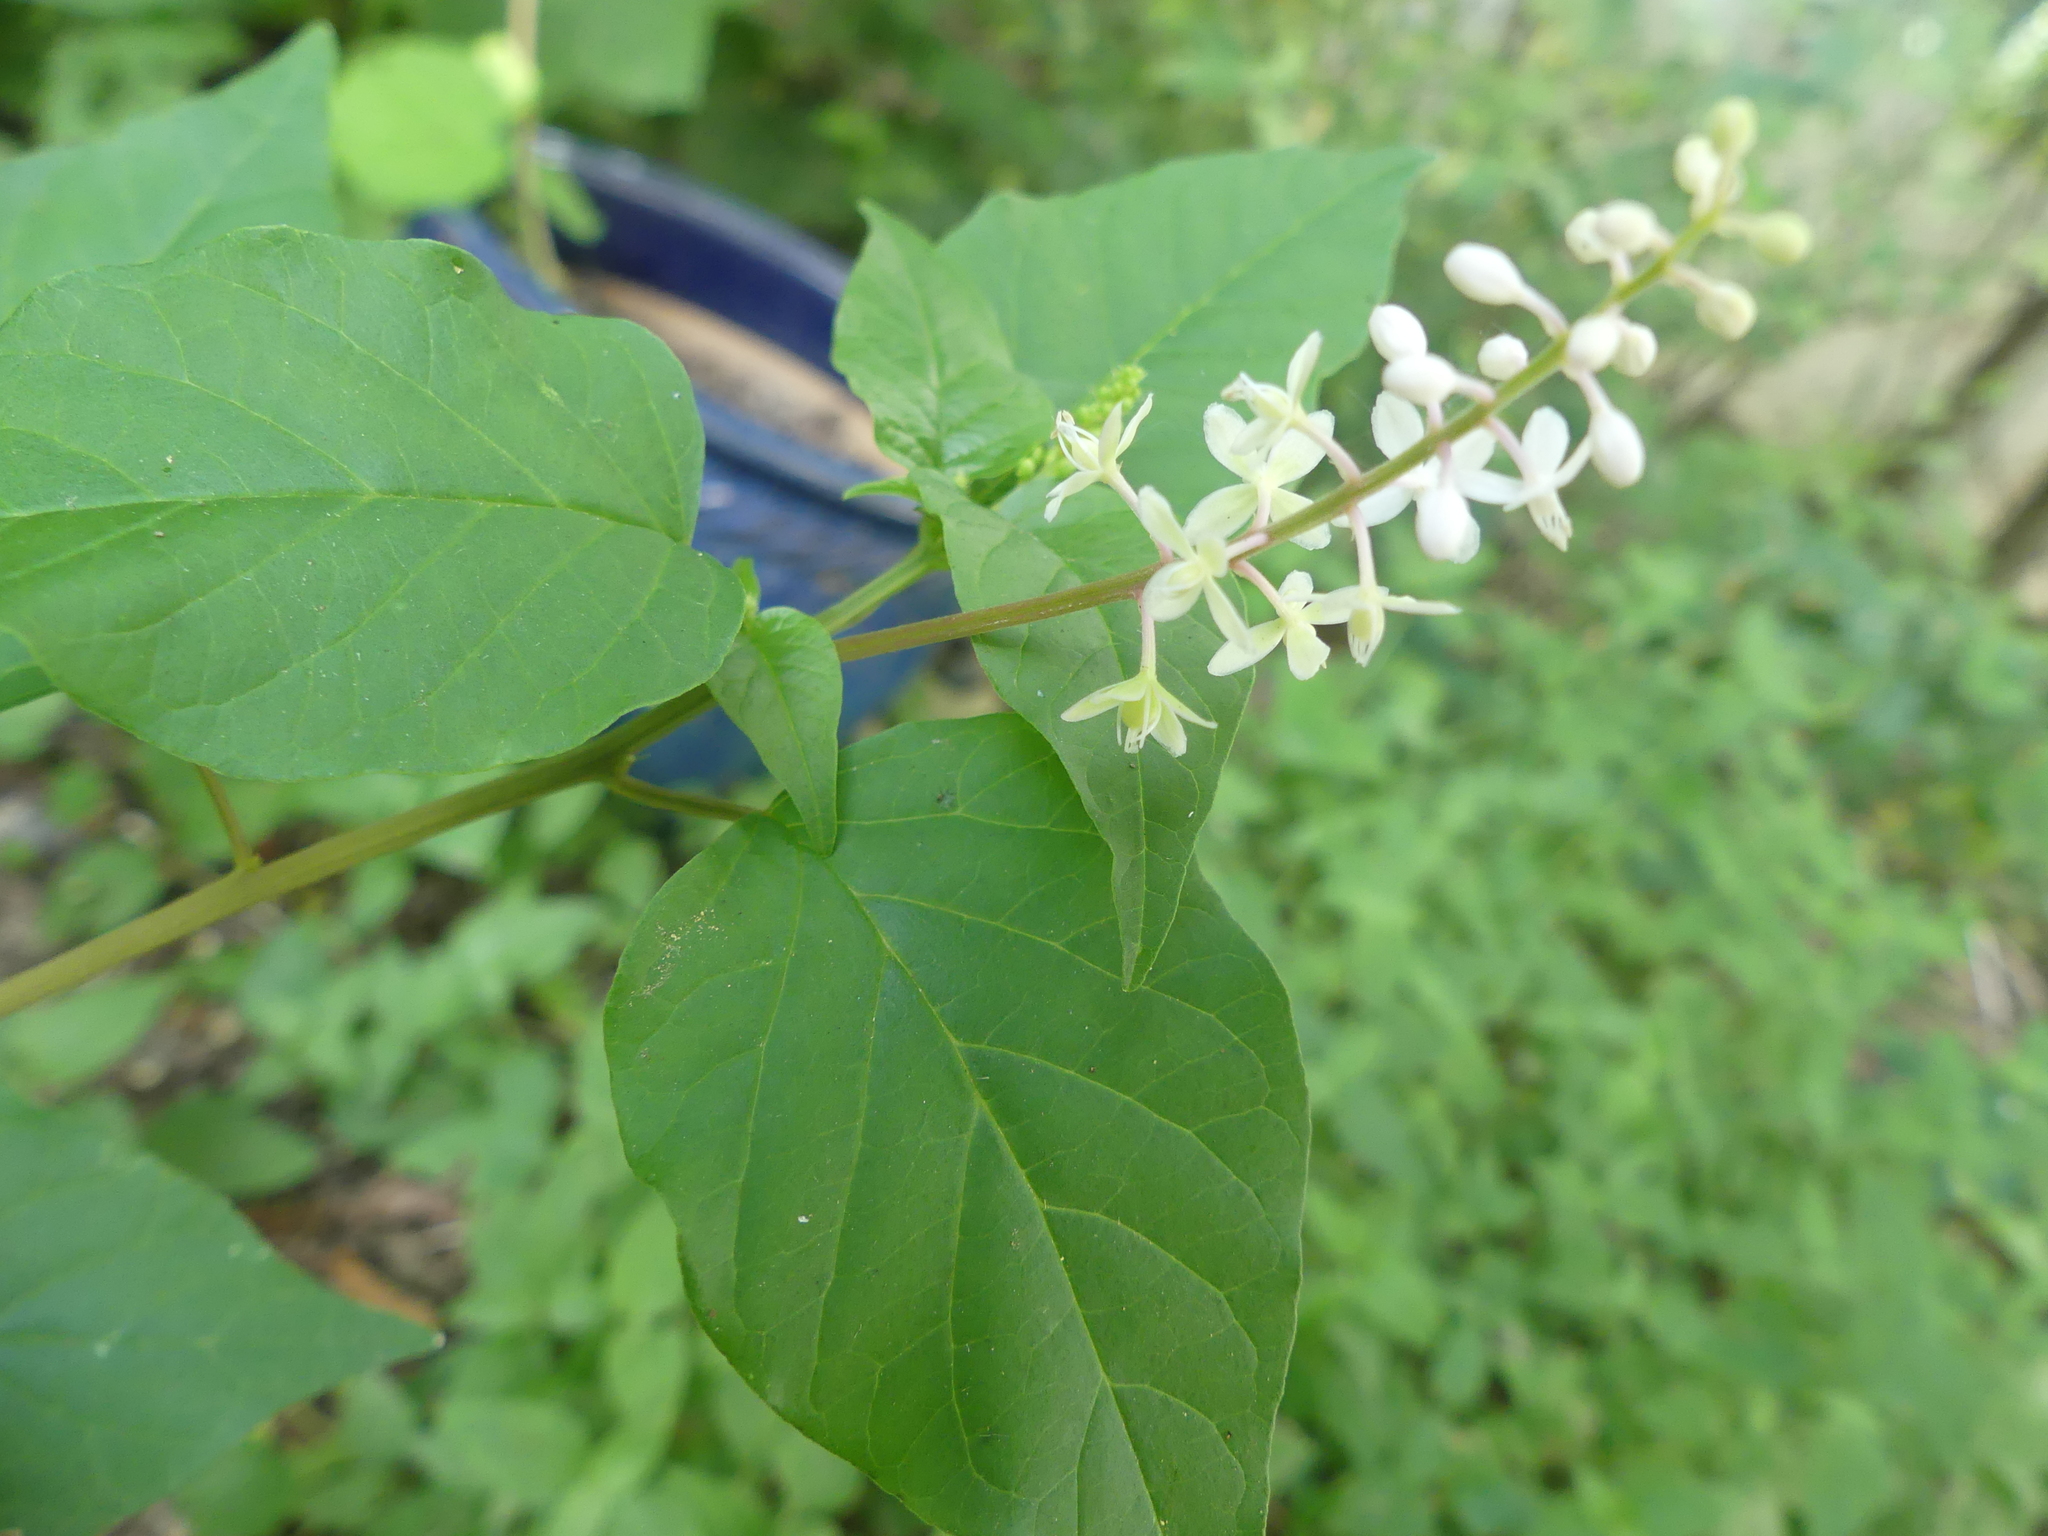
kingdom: Plantae
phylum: Tracheophyta
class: Magnoliopsida
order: Caryophyllales
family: Phytolaccaceae
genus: Rivina
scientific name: Rivina humilis
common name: Rougeplant
